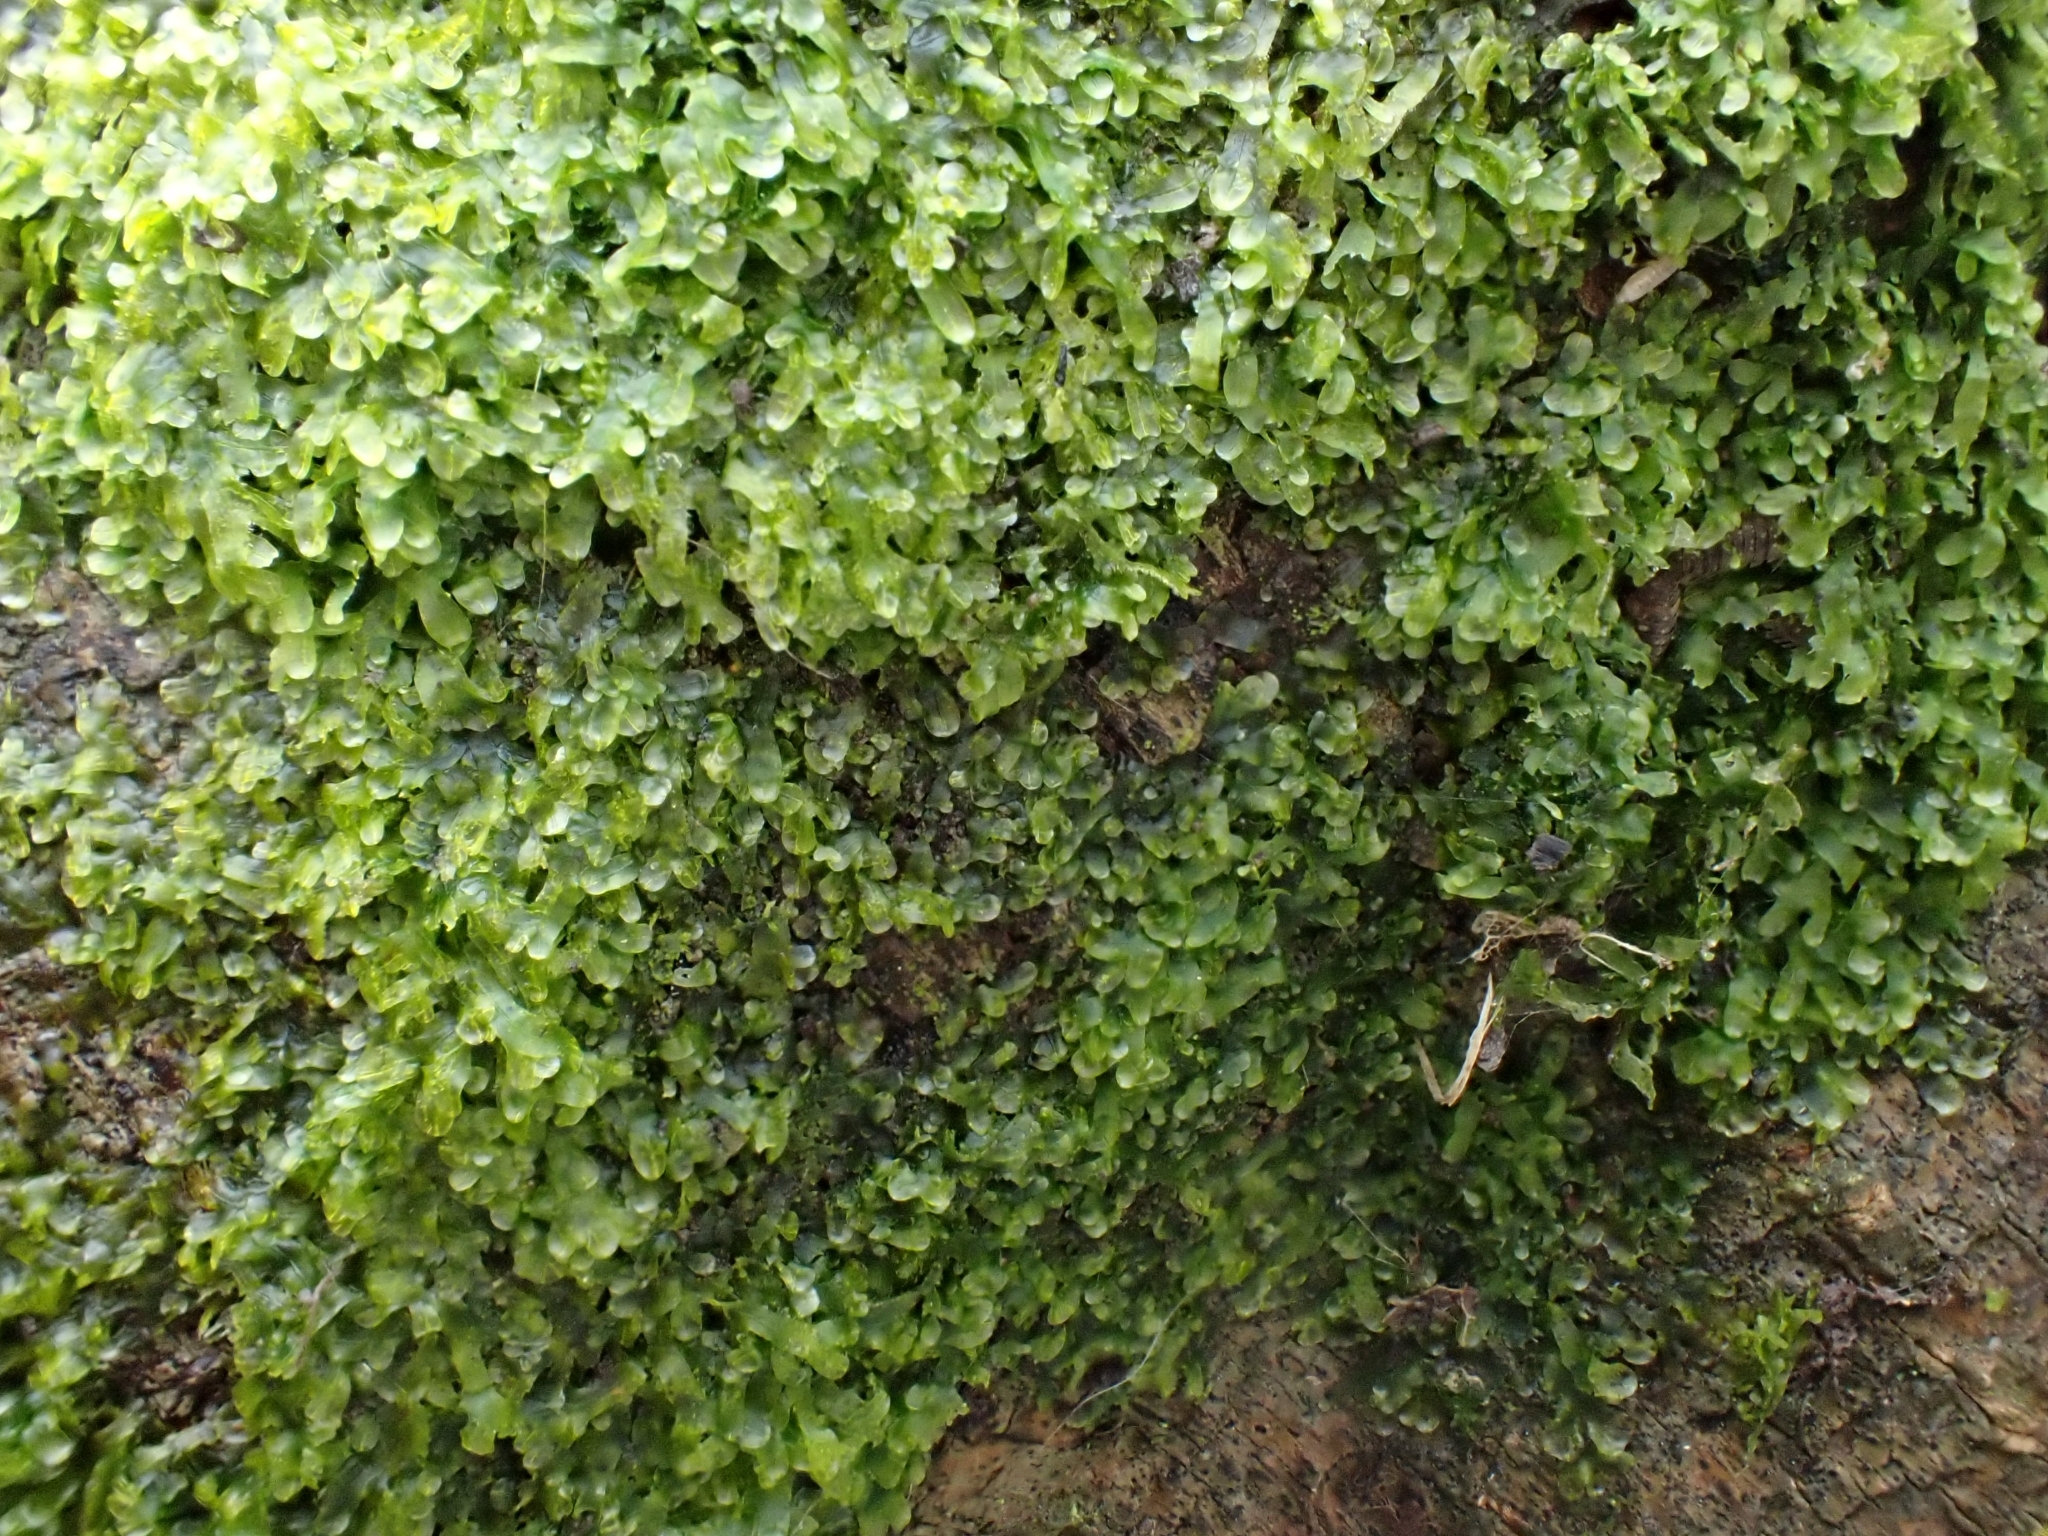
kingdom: Plantae
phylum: Marchantiophyta
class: Jungermanniopsida
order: Metzgeriales
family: Metzgeriaceae
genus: Metzgeria
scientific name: Metzgeria furcata
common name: Forked veilwort
